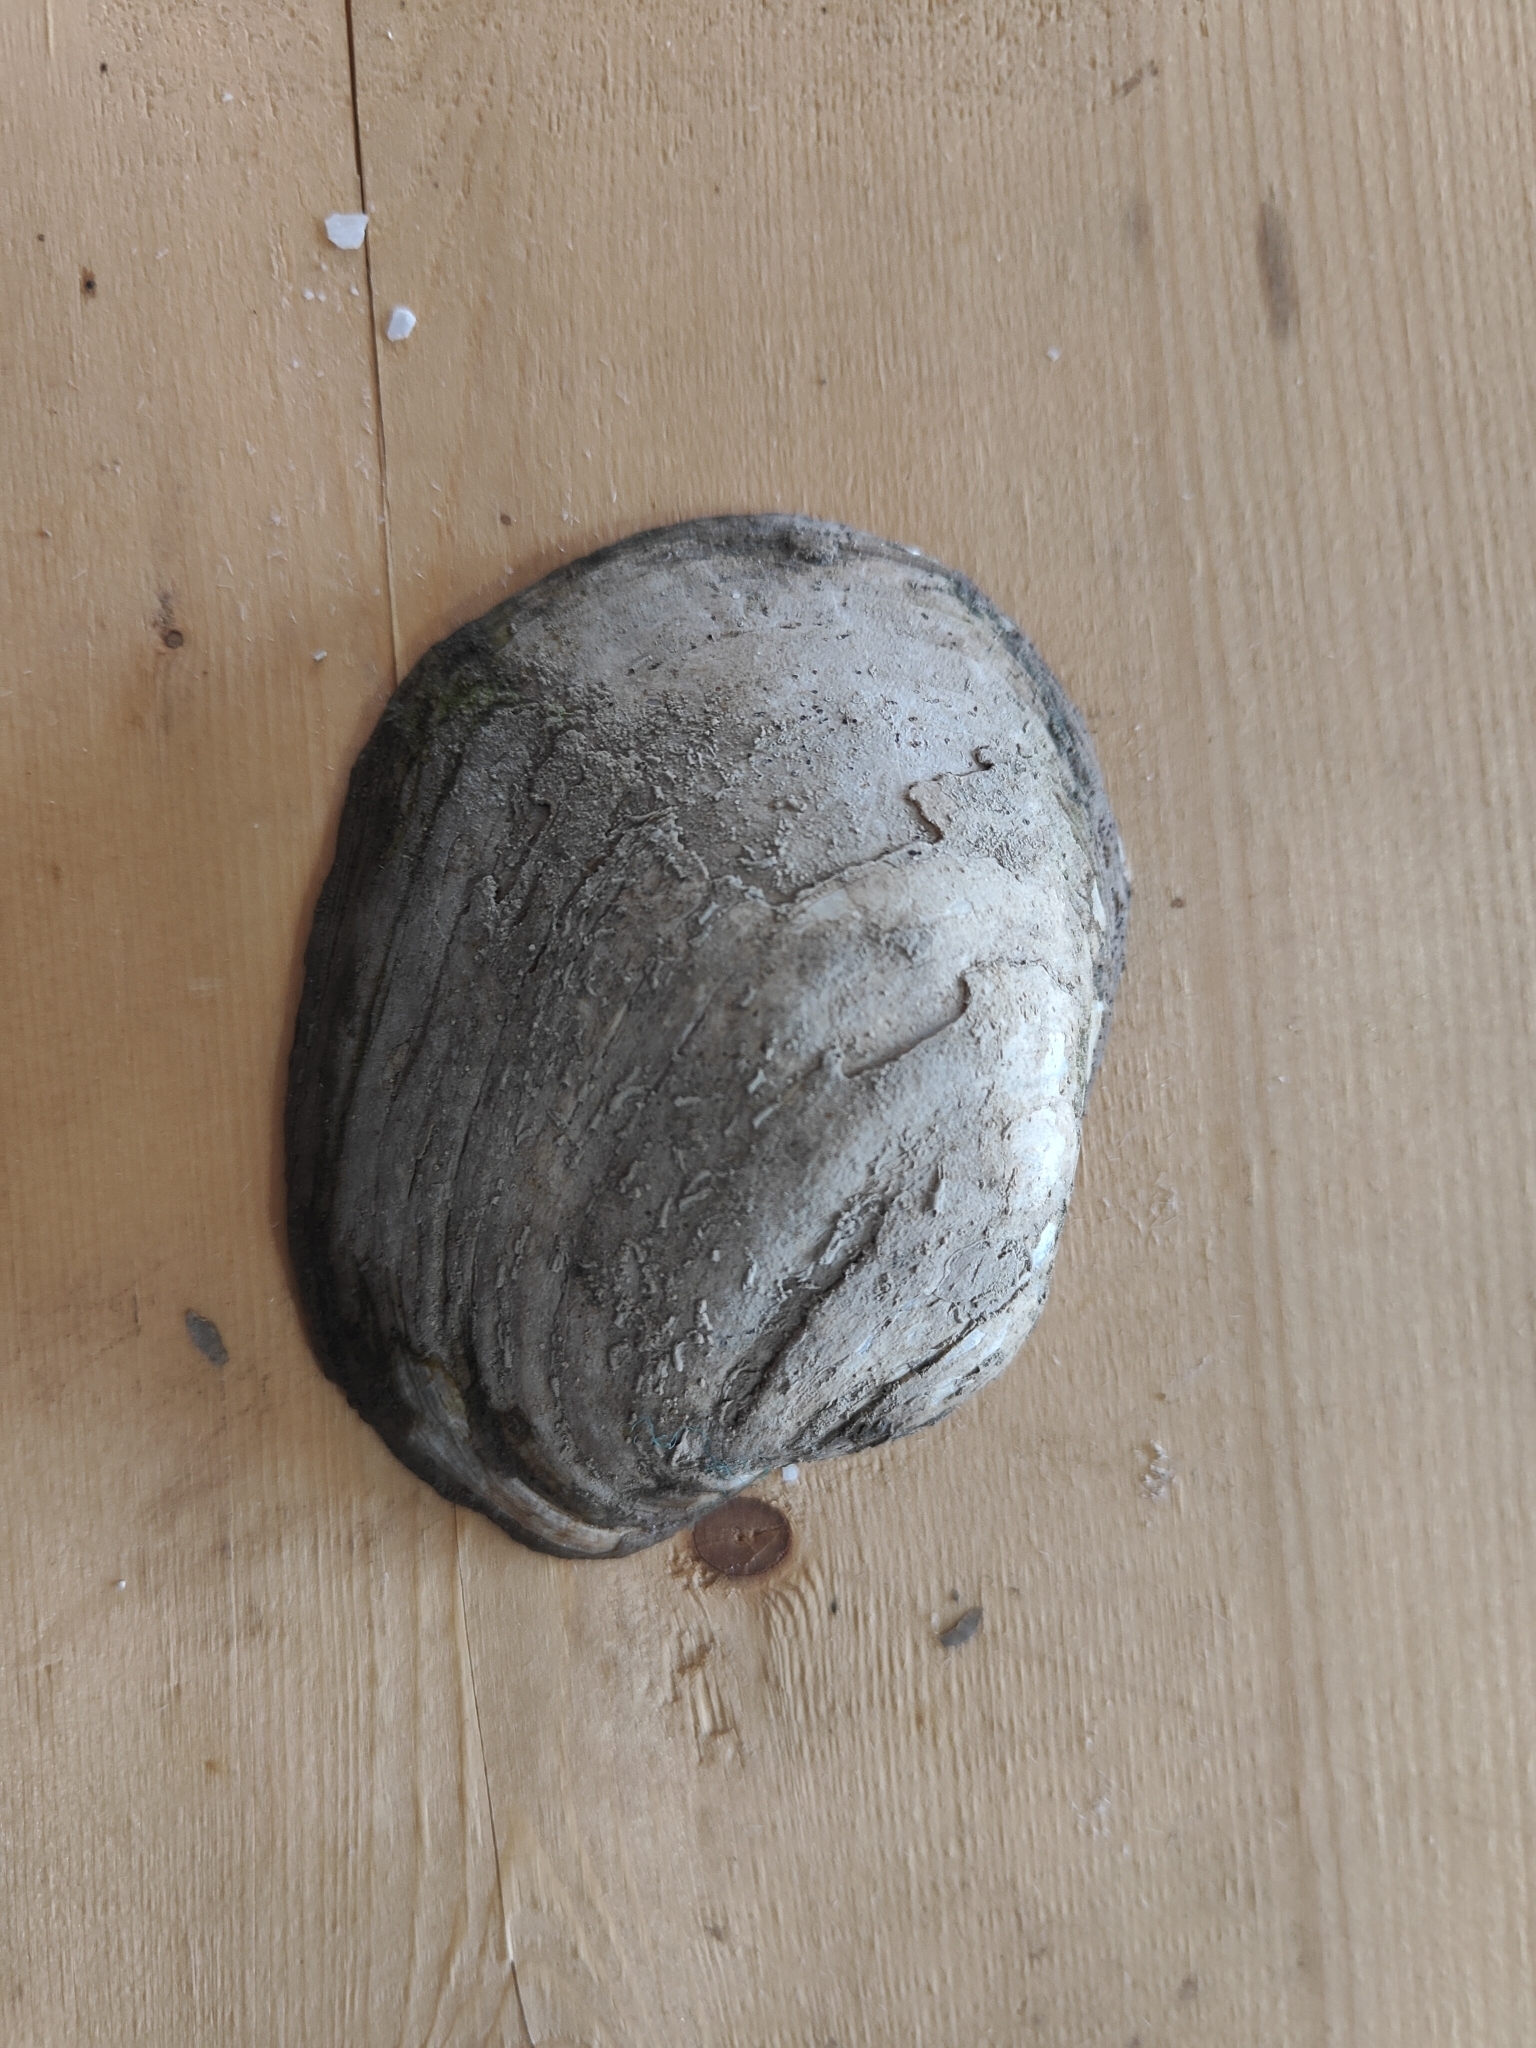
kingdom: Animalia
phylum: Mollusca
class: Bivalvia
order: Unionida
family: Unionidae
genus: Lampsilis
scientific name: Lampsilis cardium
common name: Plain pocketbook
